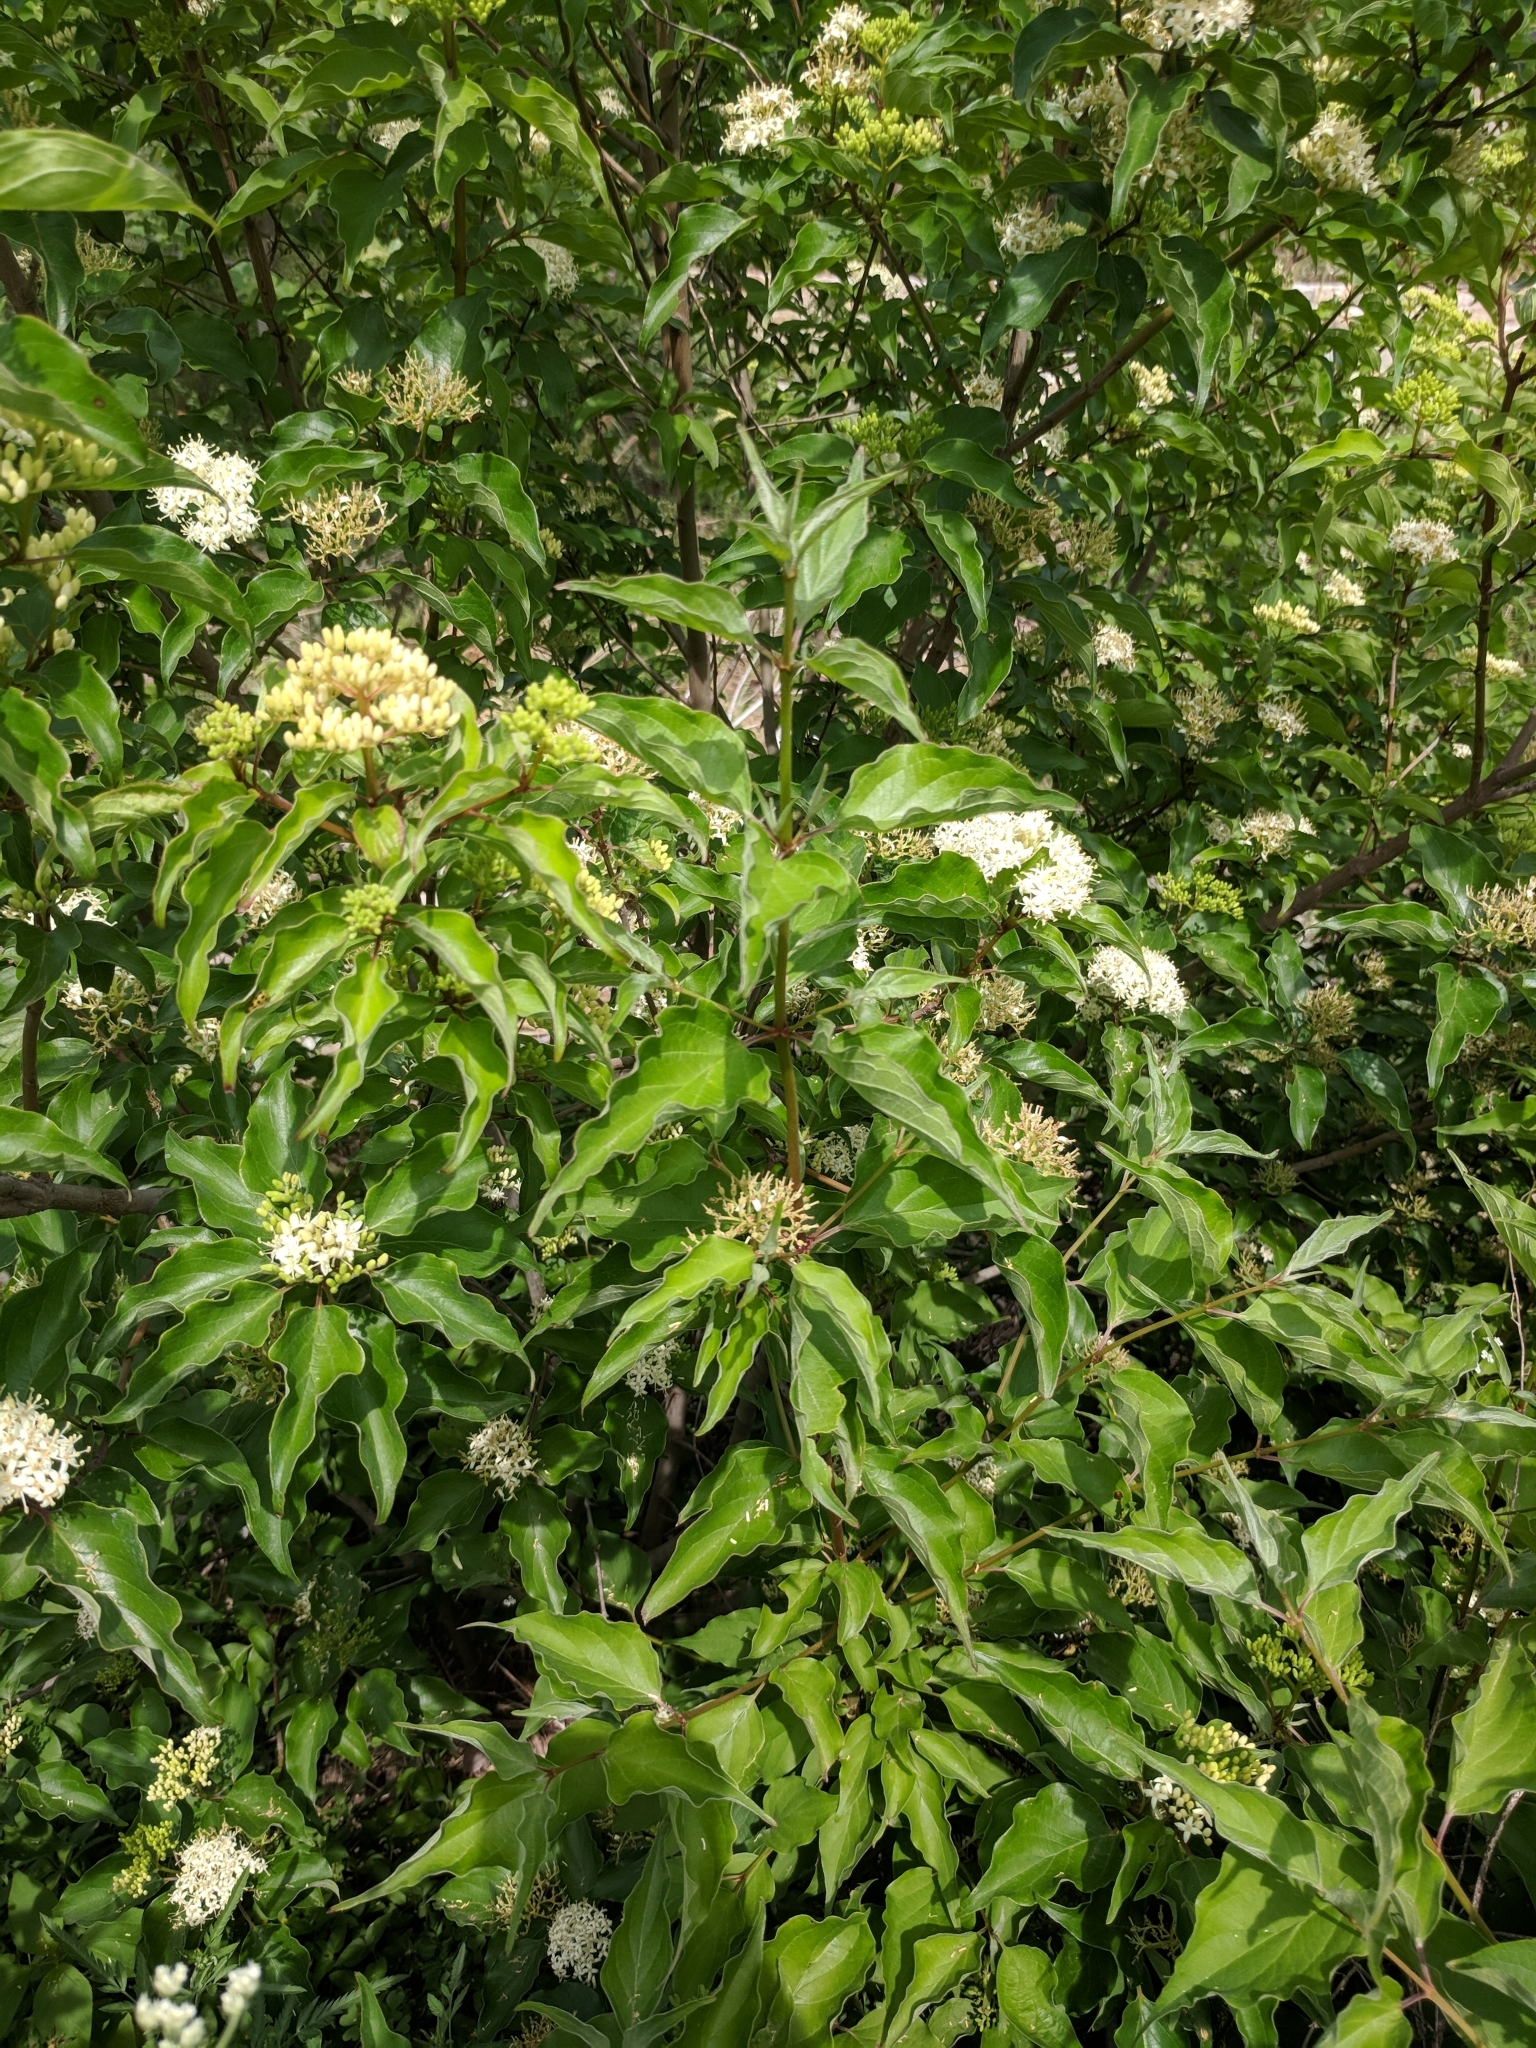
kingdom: Plantae
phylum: Tracheophyta
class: Magnoliopsida
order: Cornales
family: Cornaceae
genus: Cornus
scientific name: Cornus drummondii
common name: Rough-leaf dogwood
